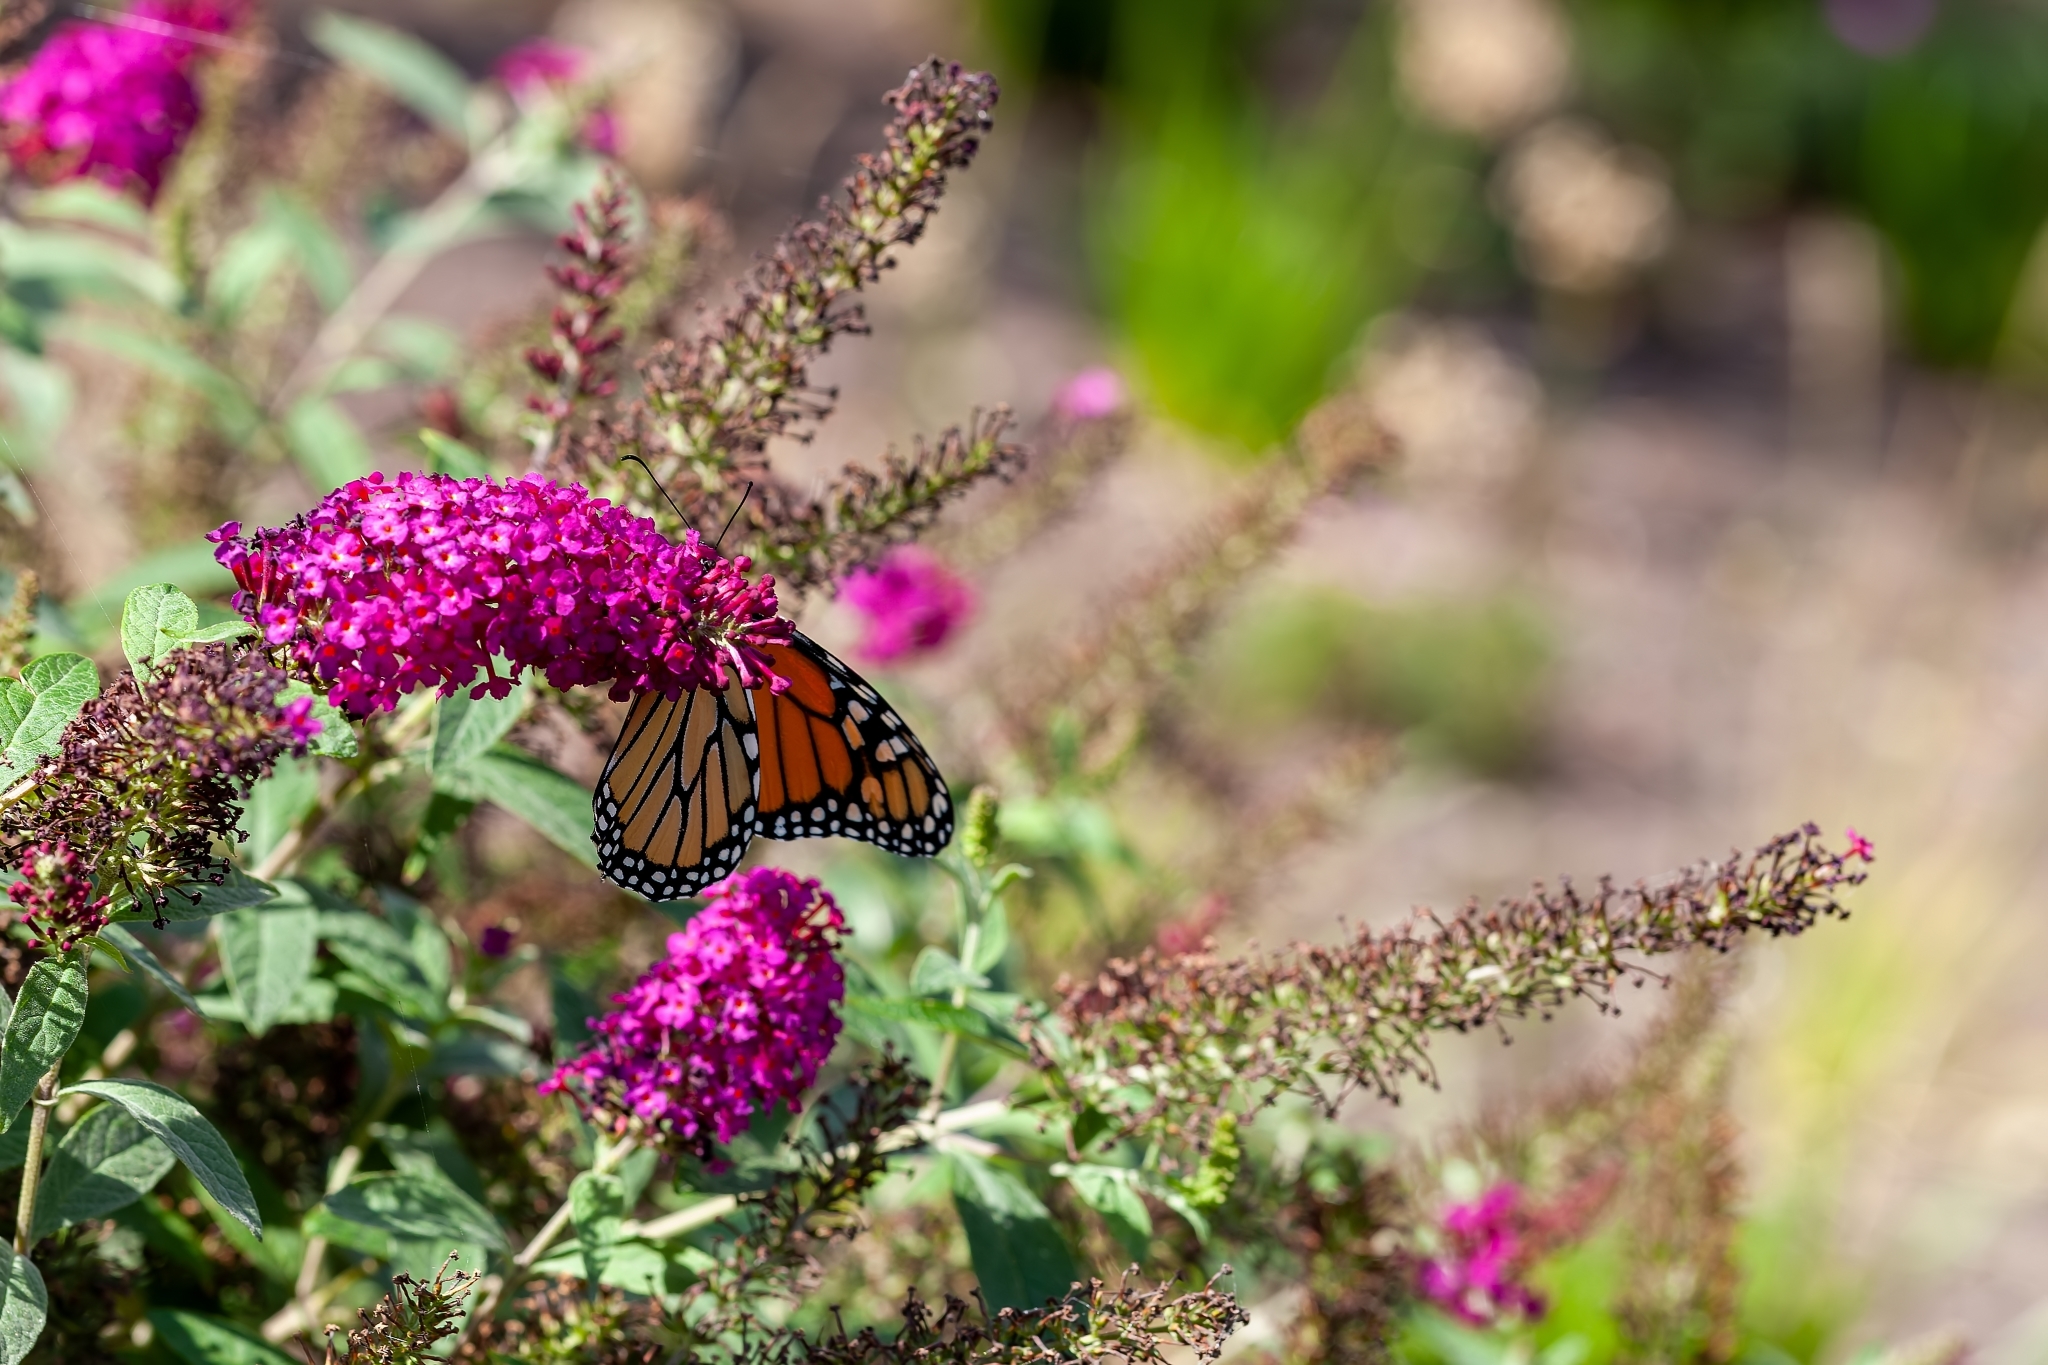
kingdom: Animalia
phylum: Arthropoda
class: Insecta
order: Lepidoptera
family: Nymphalidae
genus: Danaus
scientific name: Danaus plexippus
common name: Monarch
